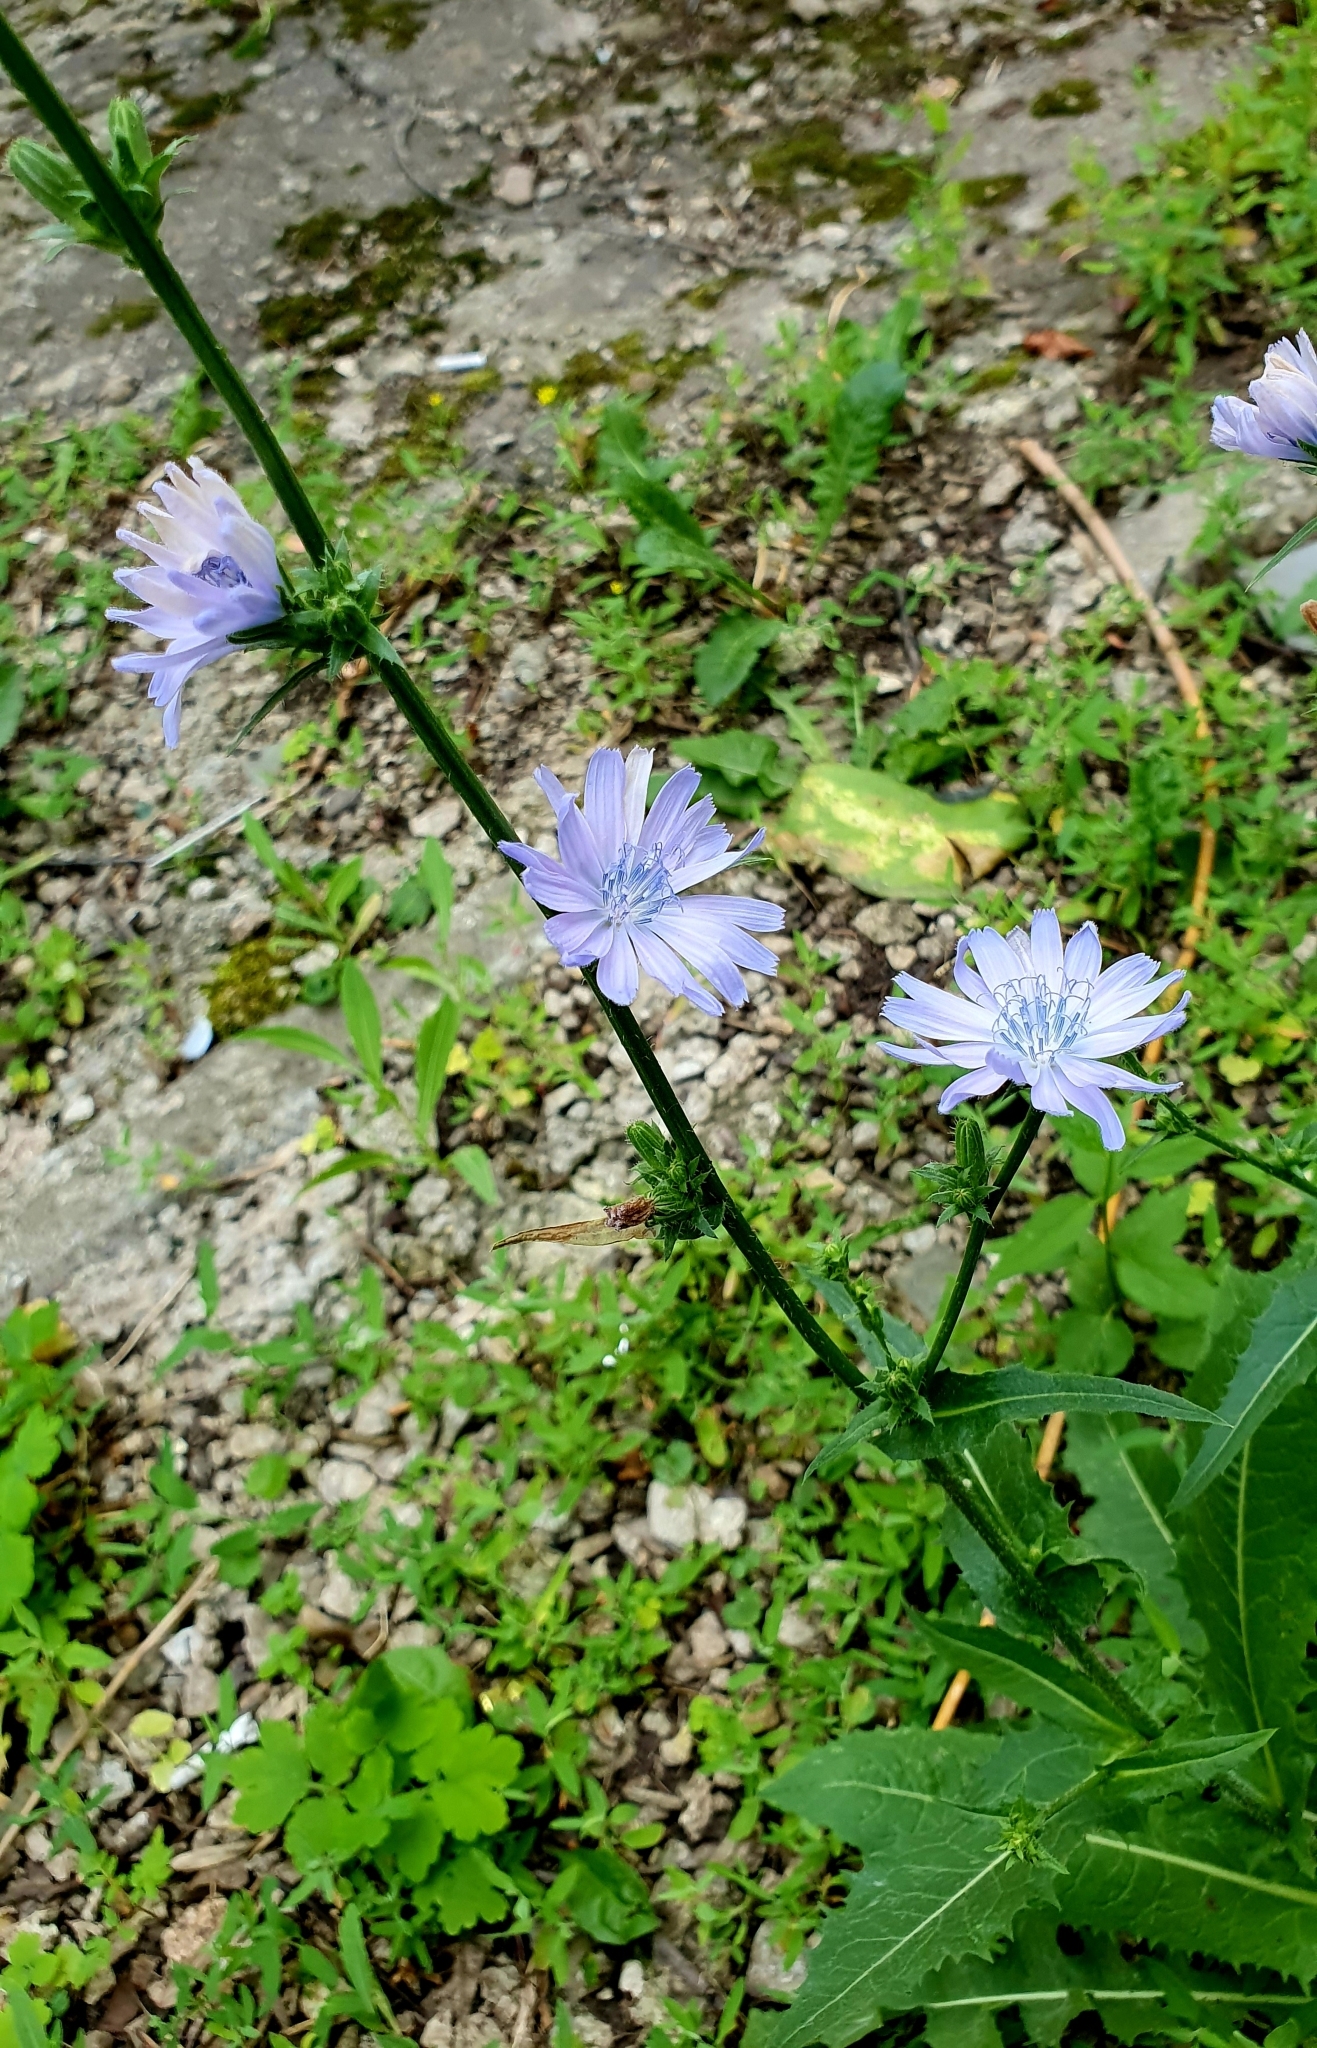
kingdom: Plantae
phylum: Tracheophyta
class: Magnoliopsida
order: Asterales
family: Asteraceae
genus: Cichorium
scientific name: Cichorium intybus
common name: Chicory
